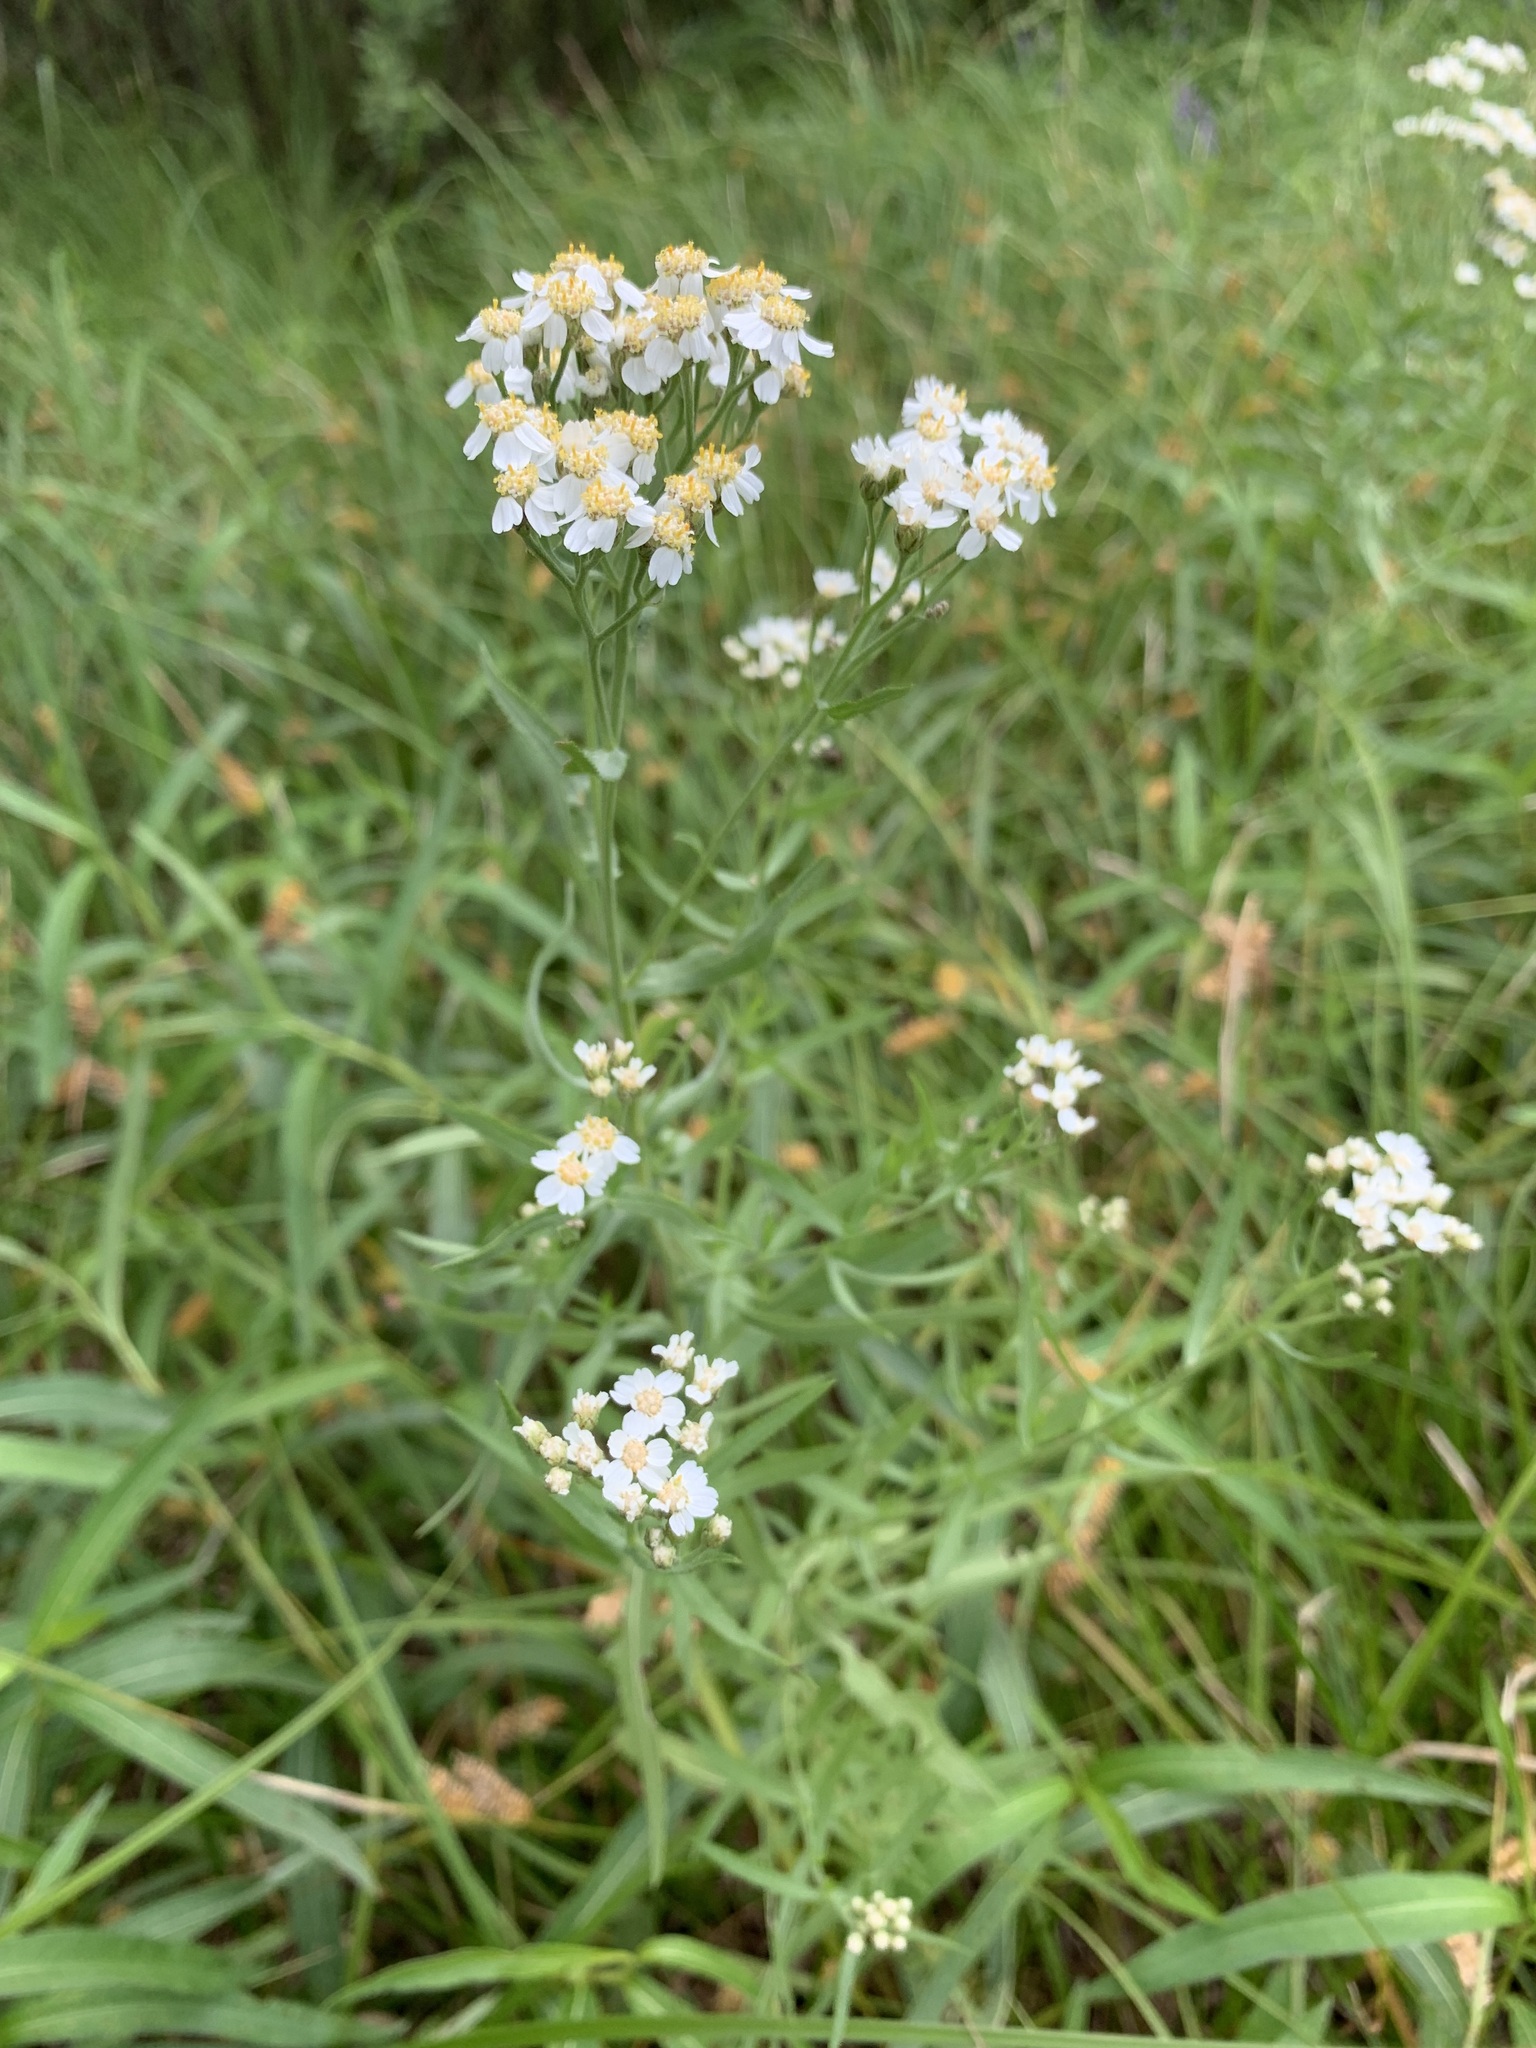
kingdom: Plantae
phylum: Tracheophyta
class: Magnoliopsida
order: Asterales
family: Asteraceae
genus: Achillea
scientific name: Achillea salicifolia
